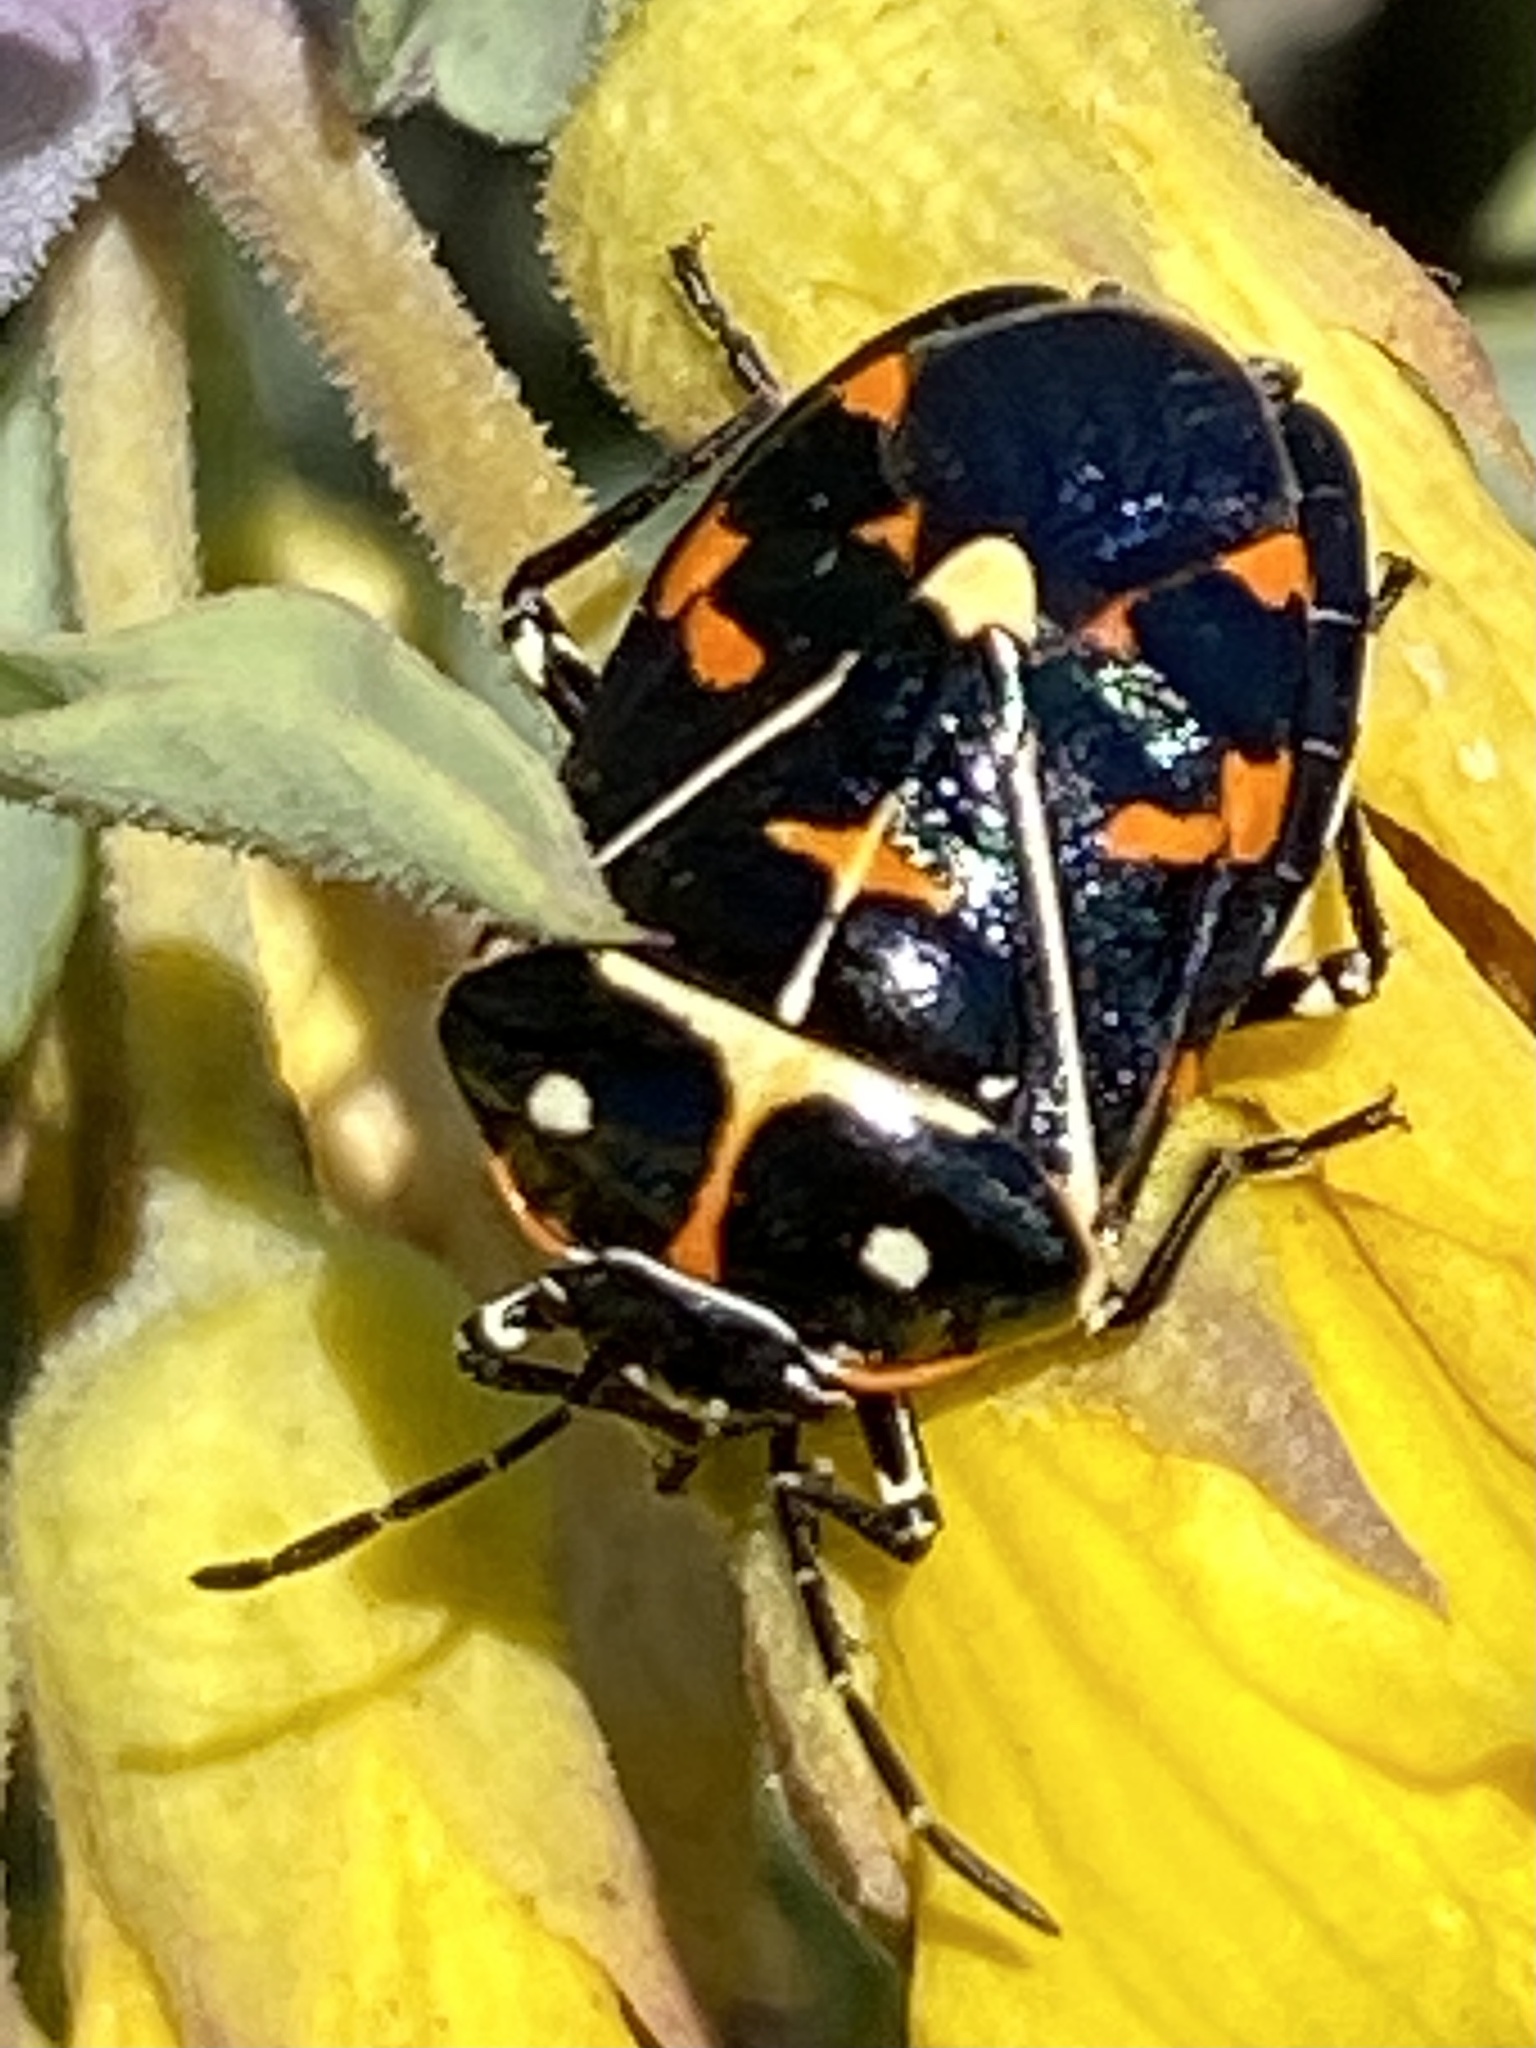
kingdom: Animalia
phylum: Arthropoda
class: Insecta
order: Hemiptera
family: Pentatomidae
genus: Murgantia
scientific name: Murgantia histrionica
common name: Harlequin bug
